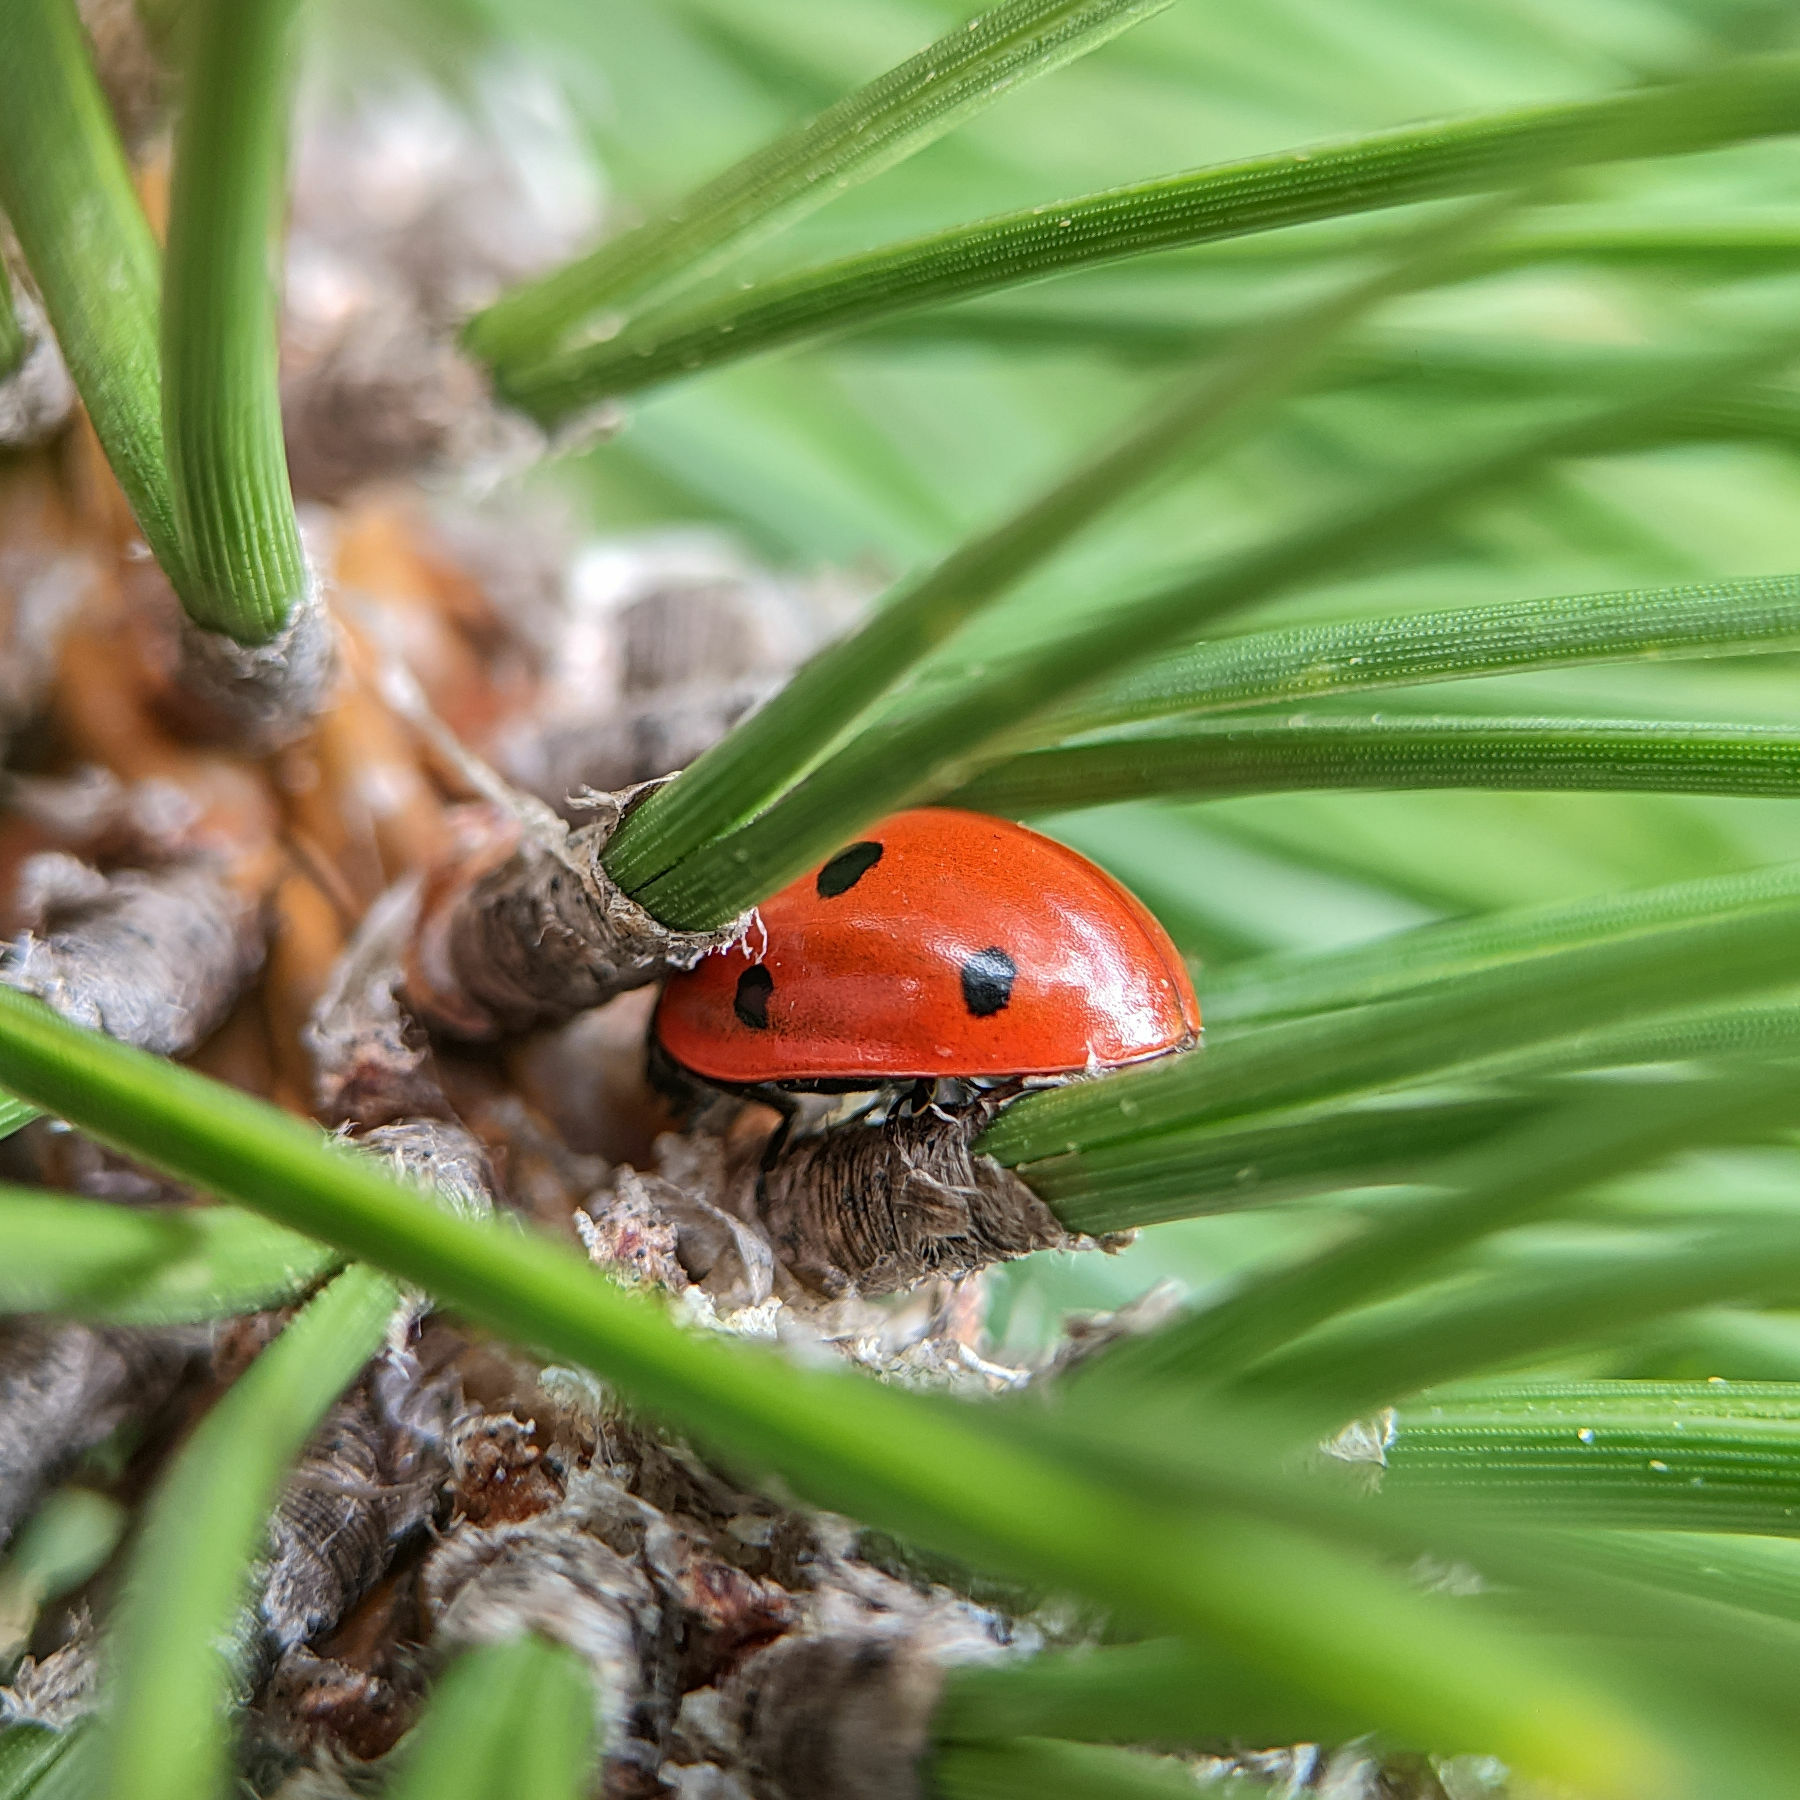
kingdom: Animalia
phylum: Arthropoda
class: Insecta
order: Coleoptera
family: Coccinellidae
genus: Coccinella
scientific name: Coccinella septempunctata
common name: Sevenspotted lady beetle
